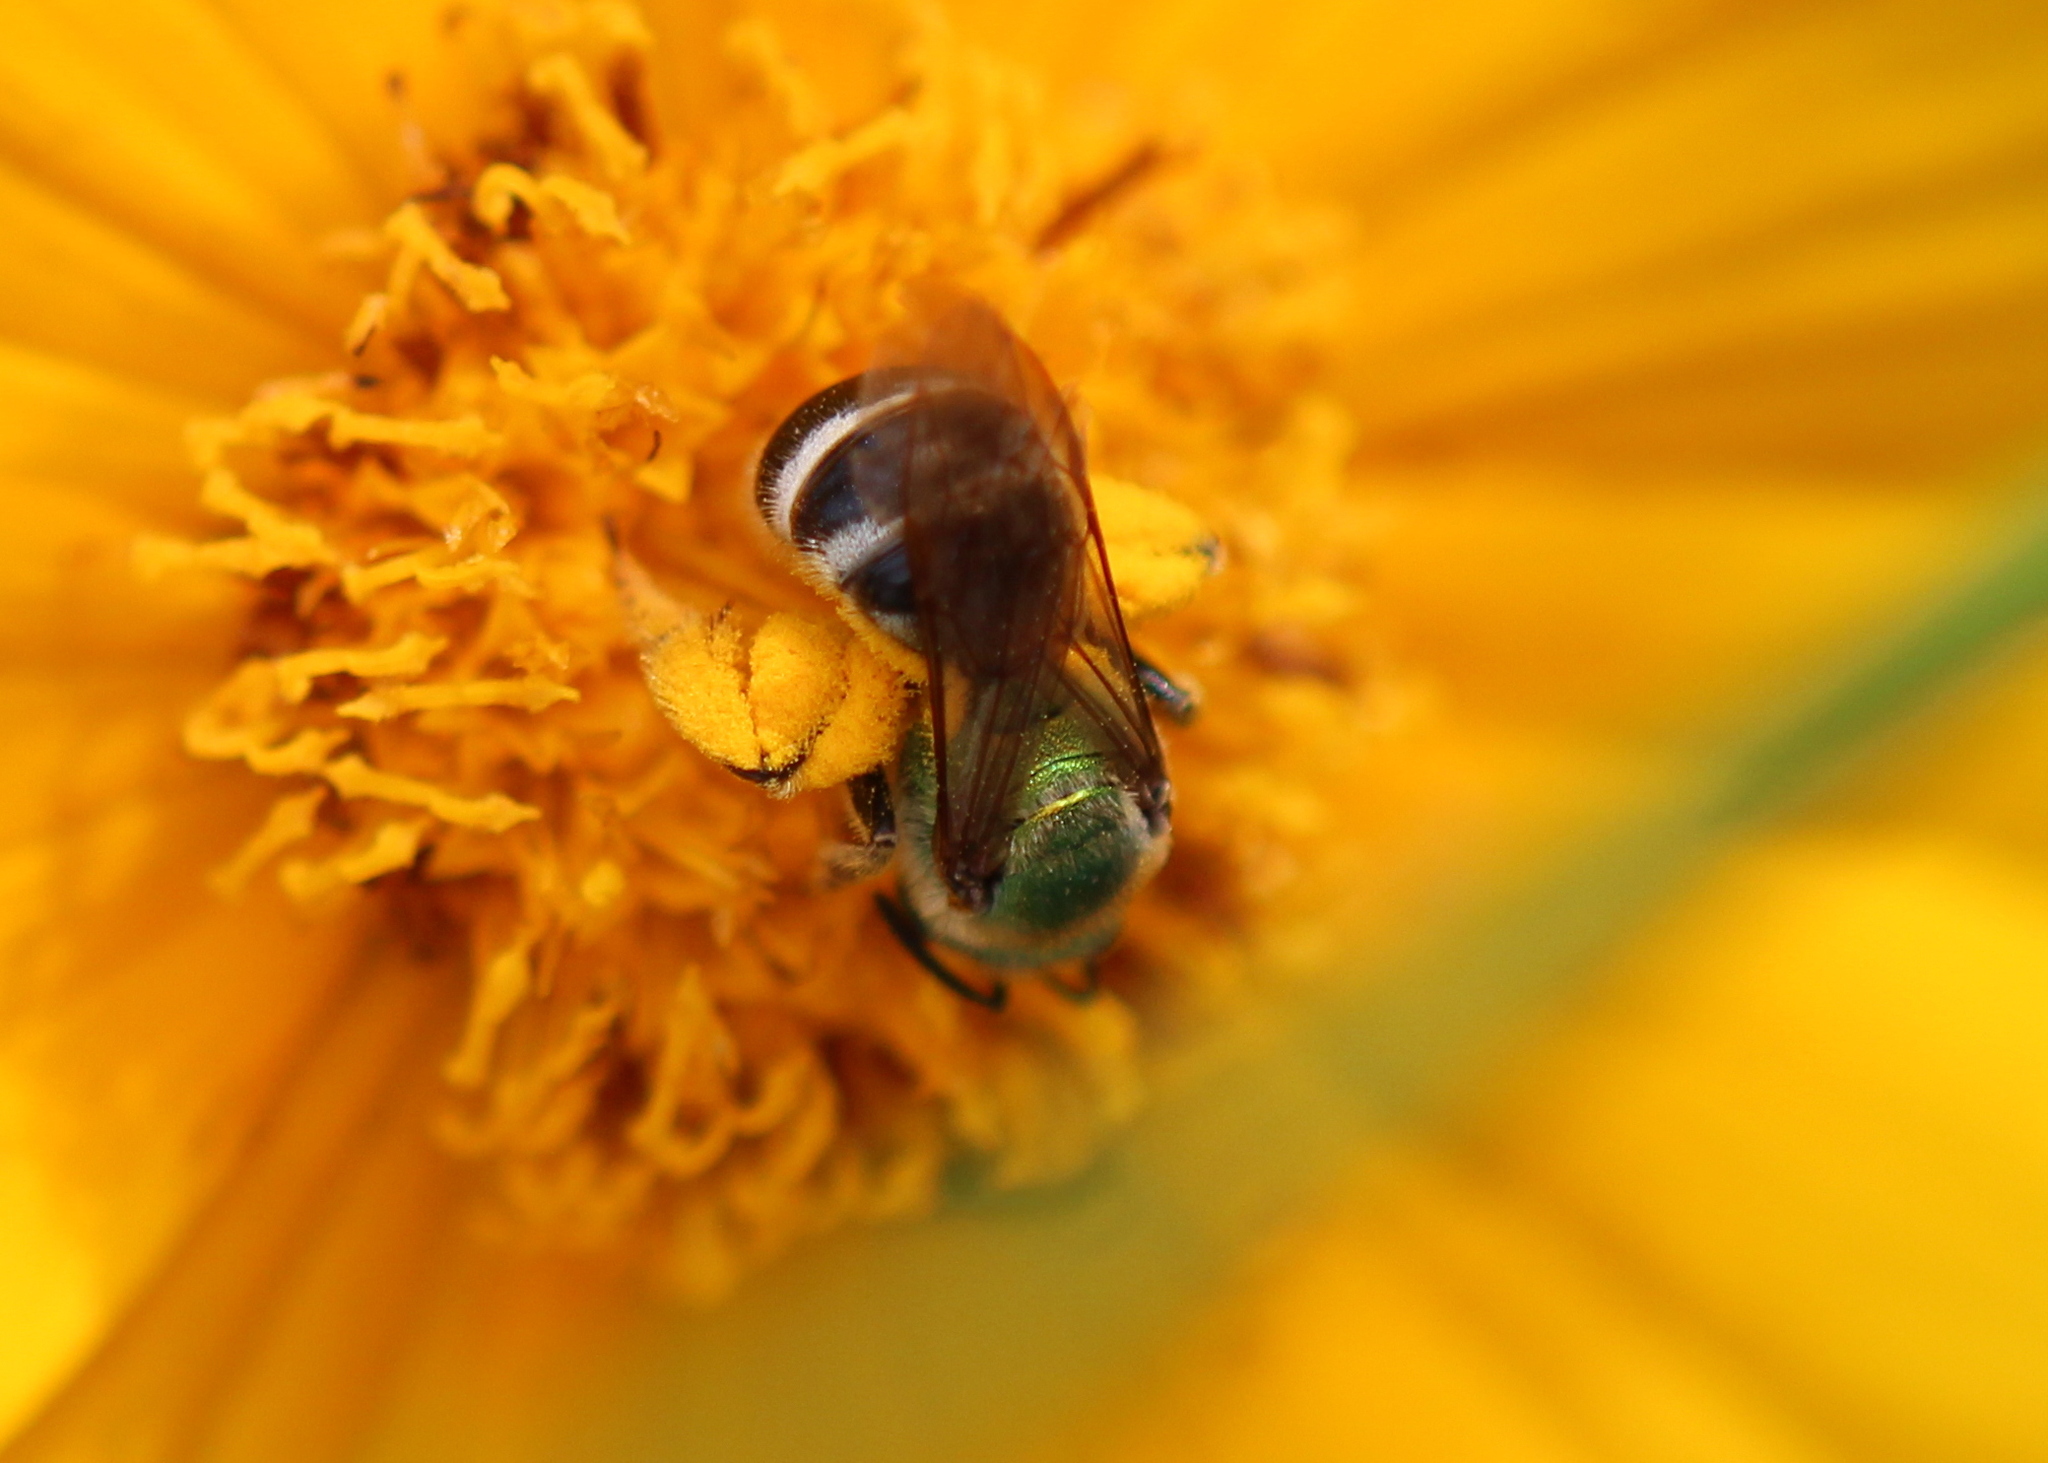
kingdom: Animalia
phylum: Arthropoda
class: Insecta
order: Hymenoptera
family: Halictidae
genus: Agapostemon
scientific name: Agapostemon virescens
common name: Bicolored striped sweat bee
